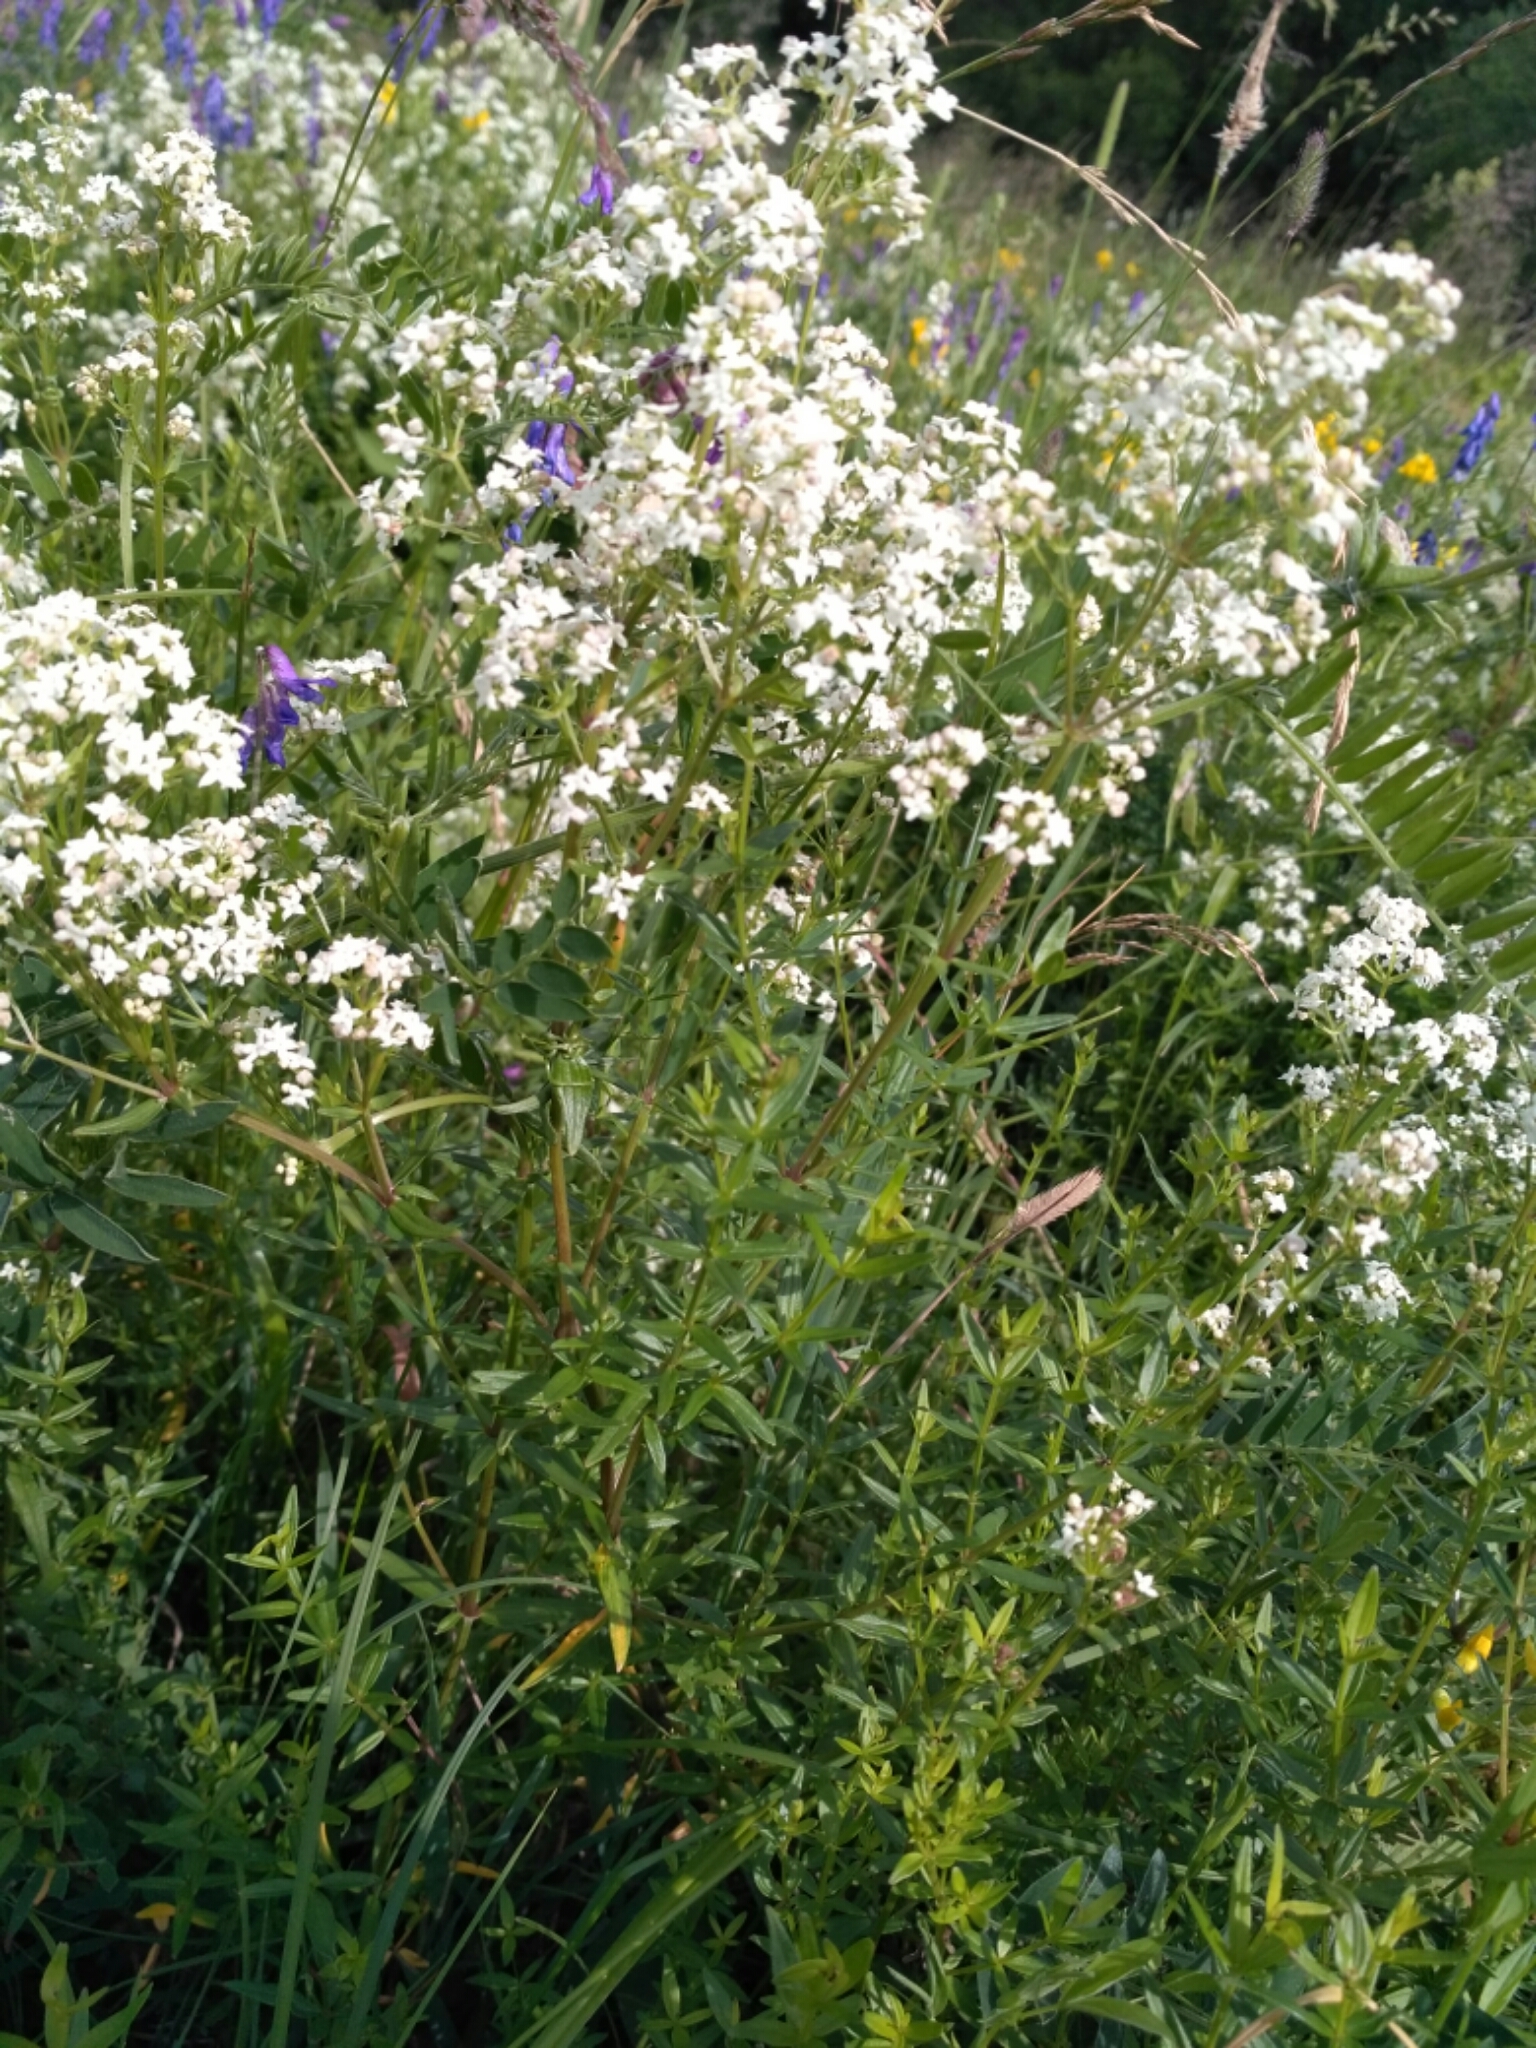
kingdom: Plantae
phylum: Tracheophyta
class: Magnoliopsida
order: Gentianales
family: Rubiaceae
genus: Galium
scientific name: Galium boreale
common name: Northern bedstraw
